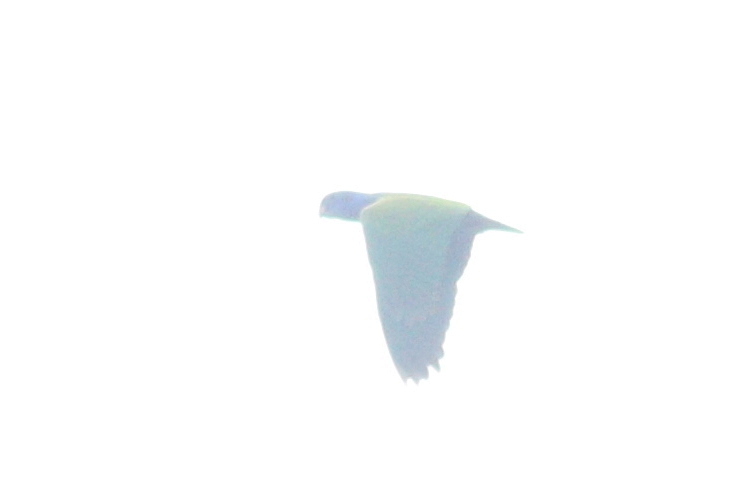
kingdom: Animalia
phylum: Chordata
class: Aves
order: Psittaciformes
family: Psittacidae
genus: Pionus
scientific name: Pionus menstruus
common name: Blue-headed parrot
